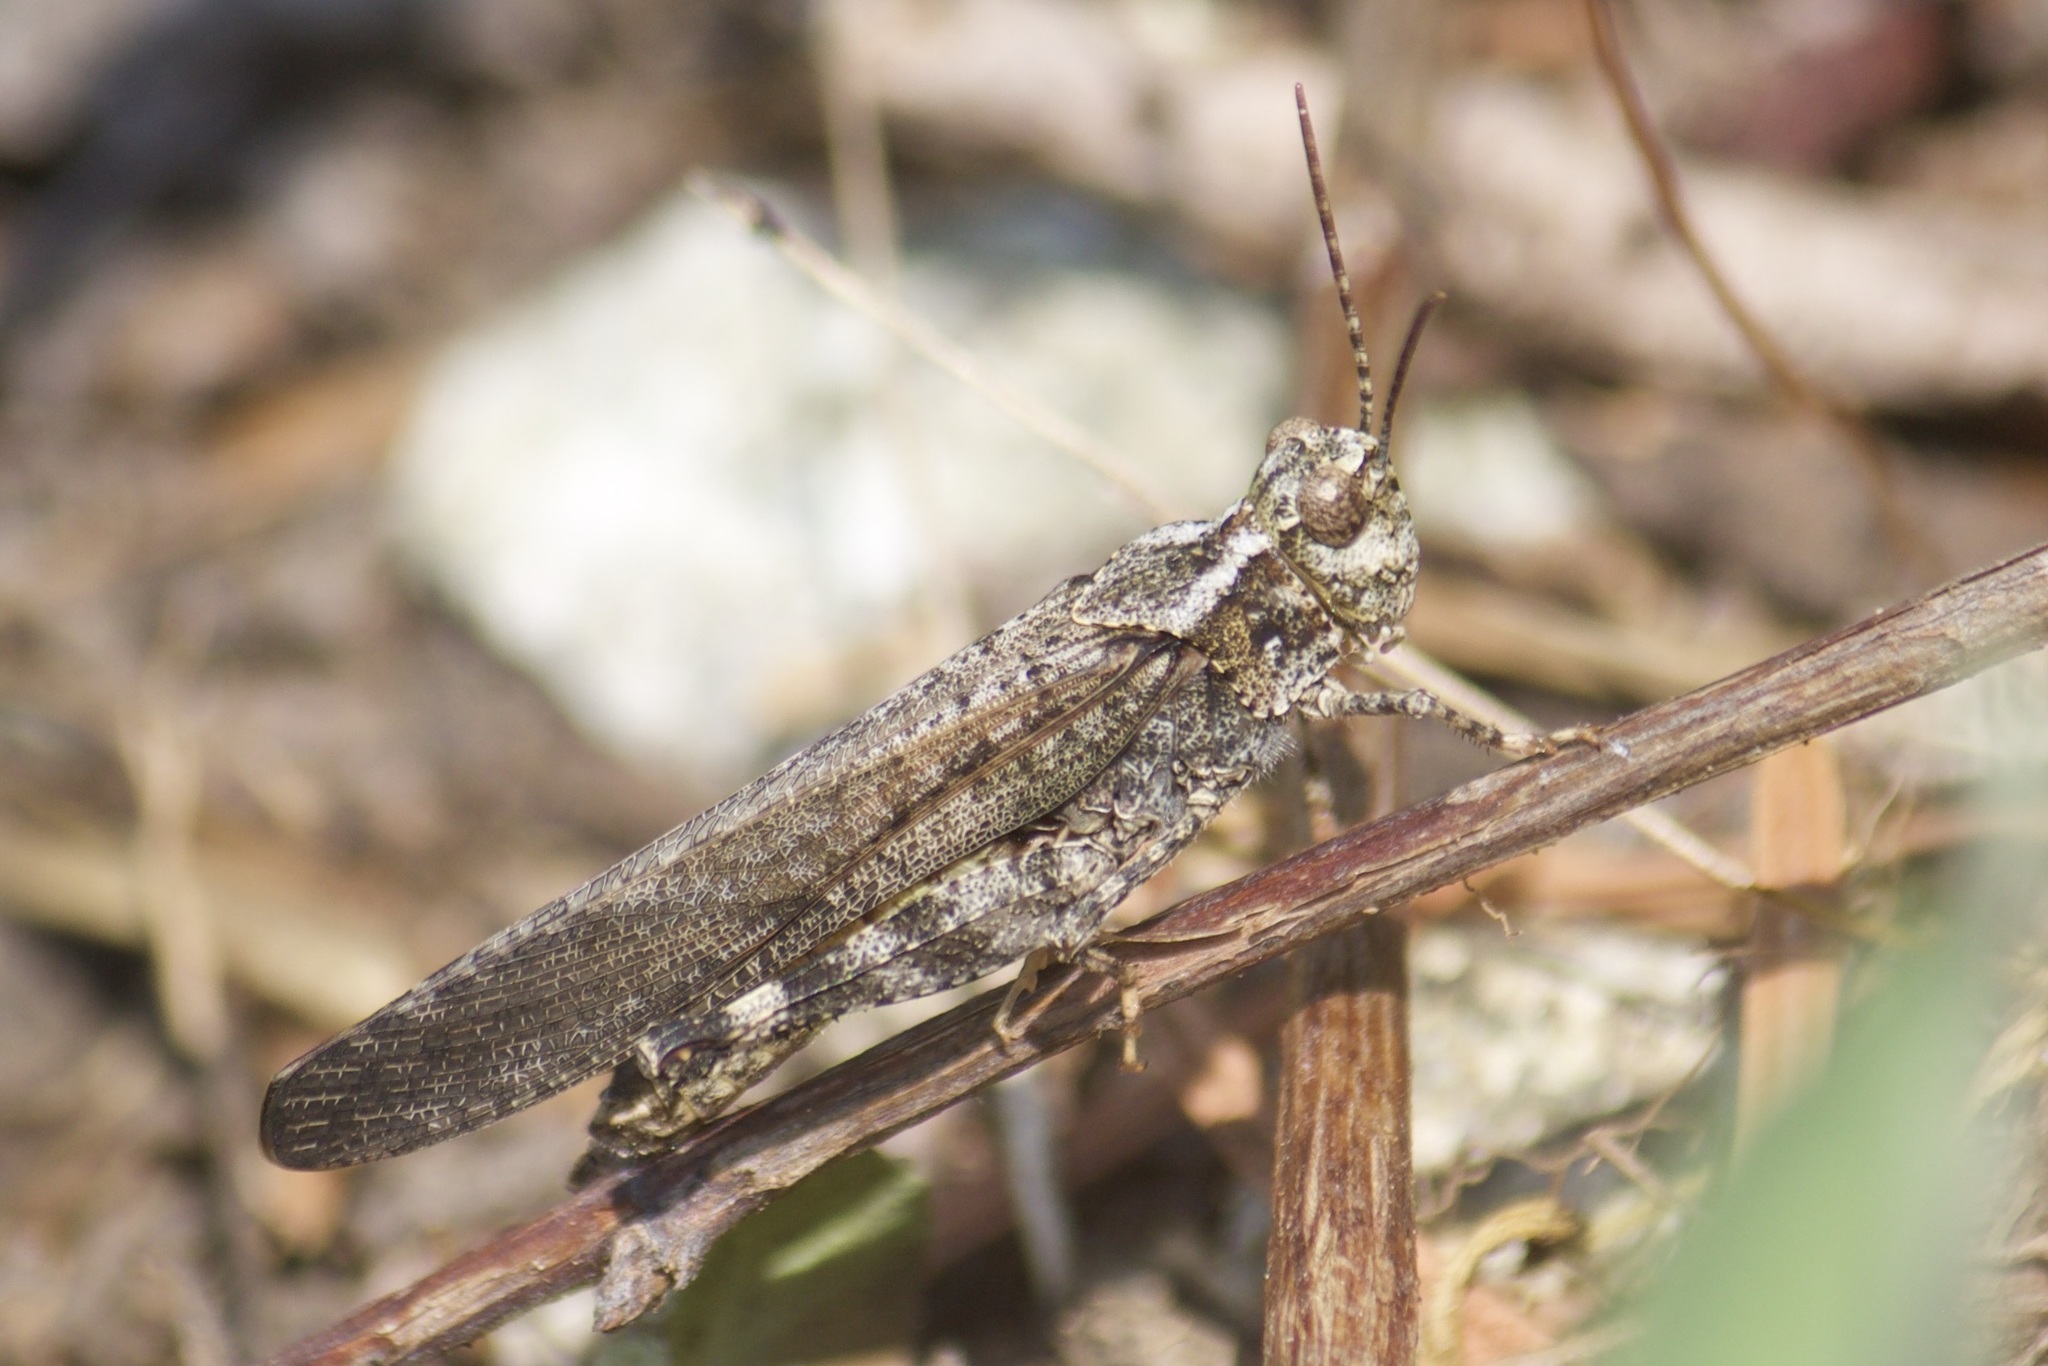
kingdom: Animalia
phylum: Arthropoda
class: Insecta
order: Orthoptera
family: Acrididae
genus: Trimerotropis
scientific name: Trimerotropis verruculata
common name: Crackling forest grasshopper
